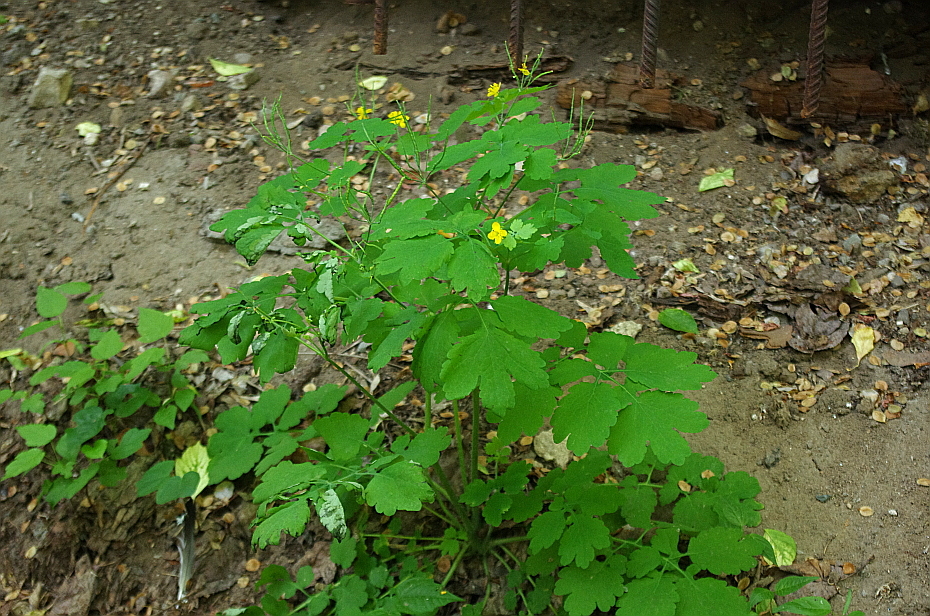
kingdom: Plantae
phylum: Tracheophyta
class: Magnoliopsida
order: Ranunculales
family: Papaveraceae
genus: Chelidonium
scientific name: Chelidonium majus
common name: Greater celandine
